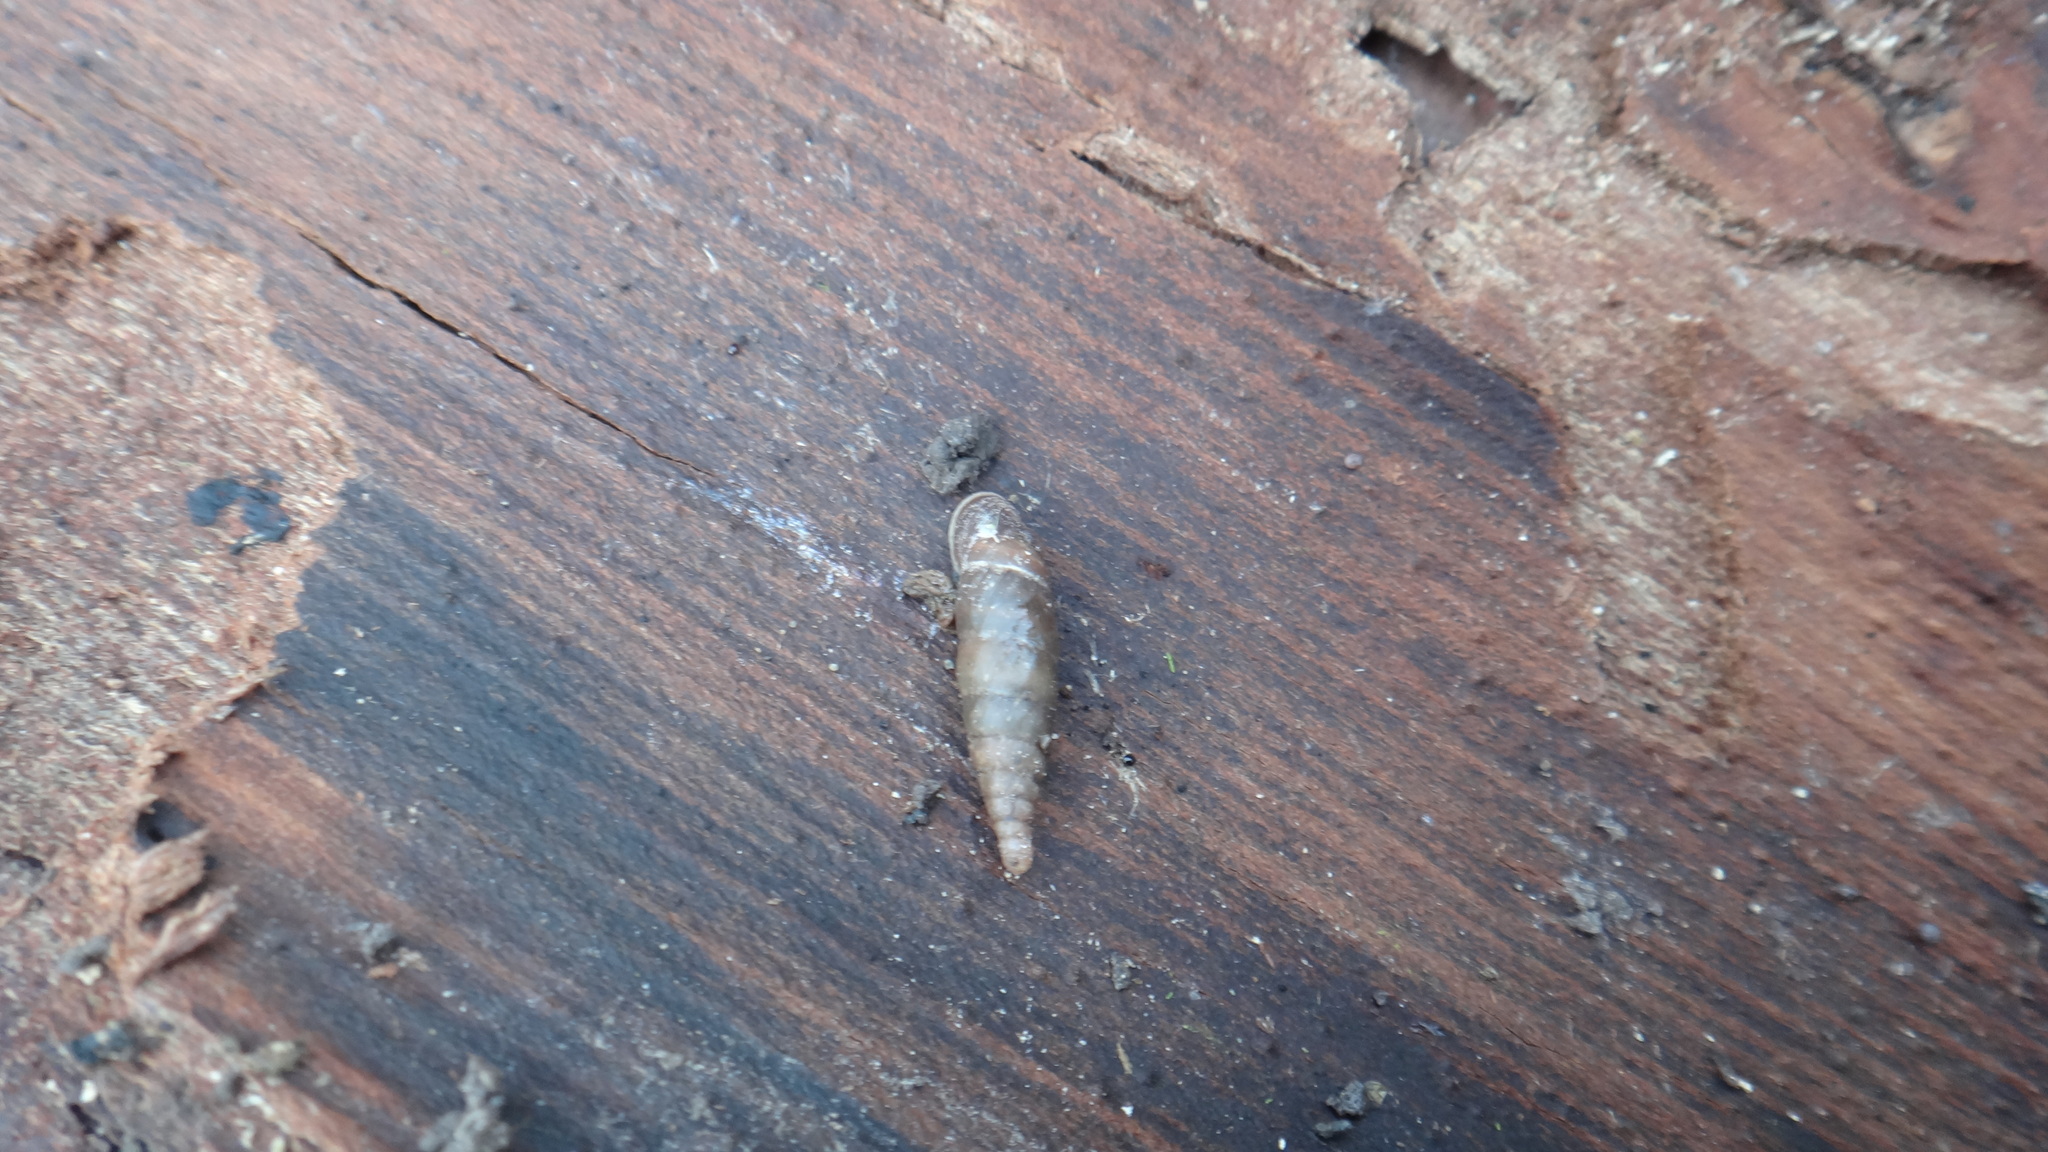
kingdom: Animalia
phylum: Mollusca
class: Gastropoda
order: Stylommatophora
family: Clausiliidae
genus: Cochlodina
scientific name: Cochlodina laminata
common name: Plaited door snail
